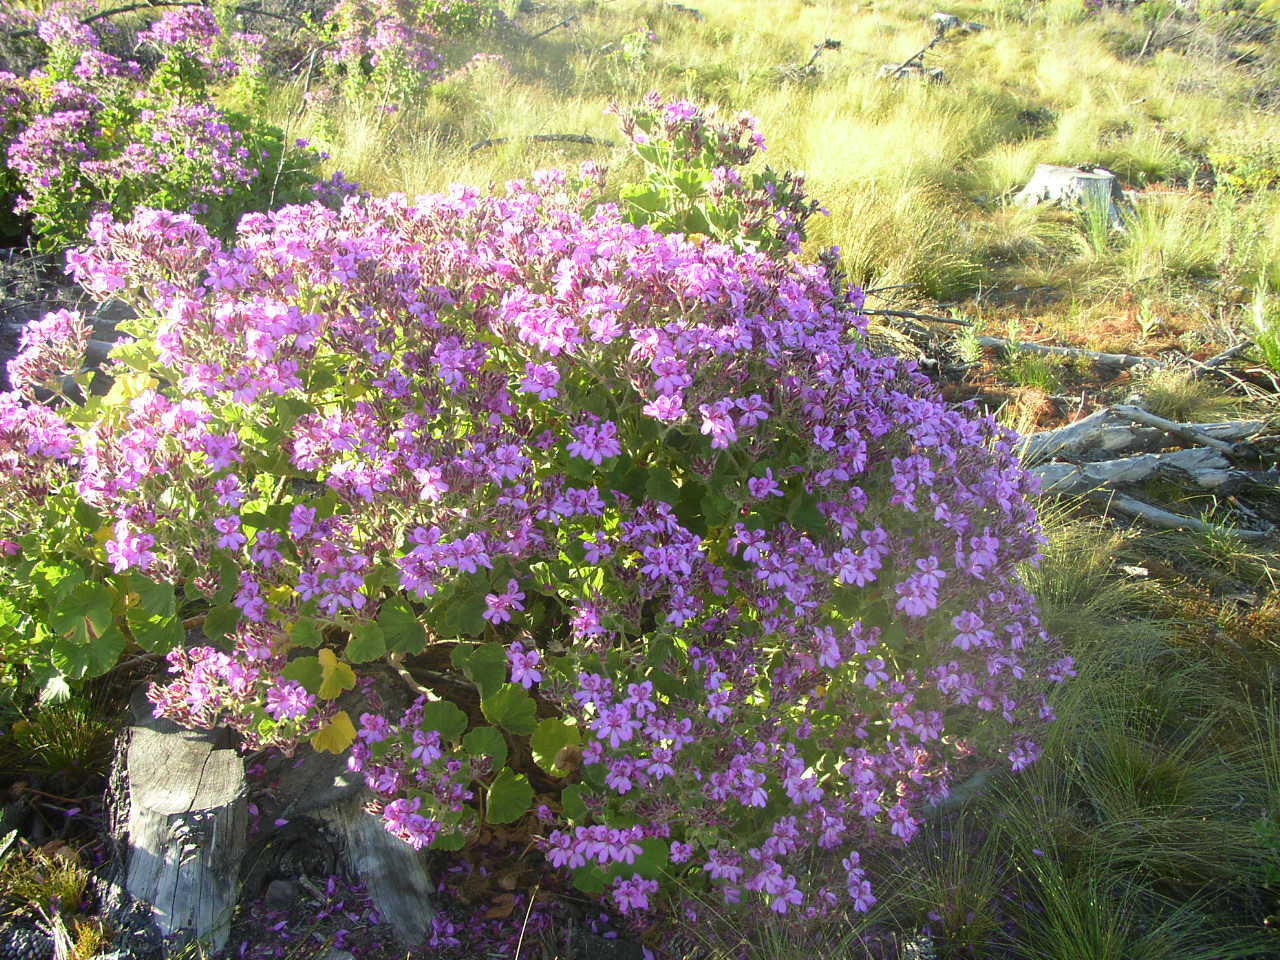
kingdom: Plantae
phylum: Tracheophyta
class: Magnoliopsida
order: Geraniales
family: Geraniaceae
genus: Pelargonium
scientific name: Pelargonium cucullatum
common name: Tree pelargonium
